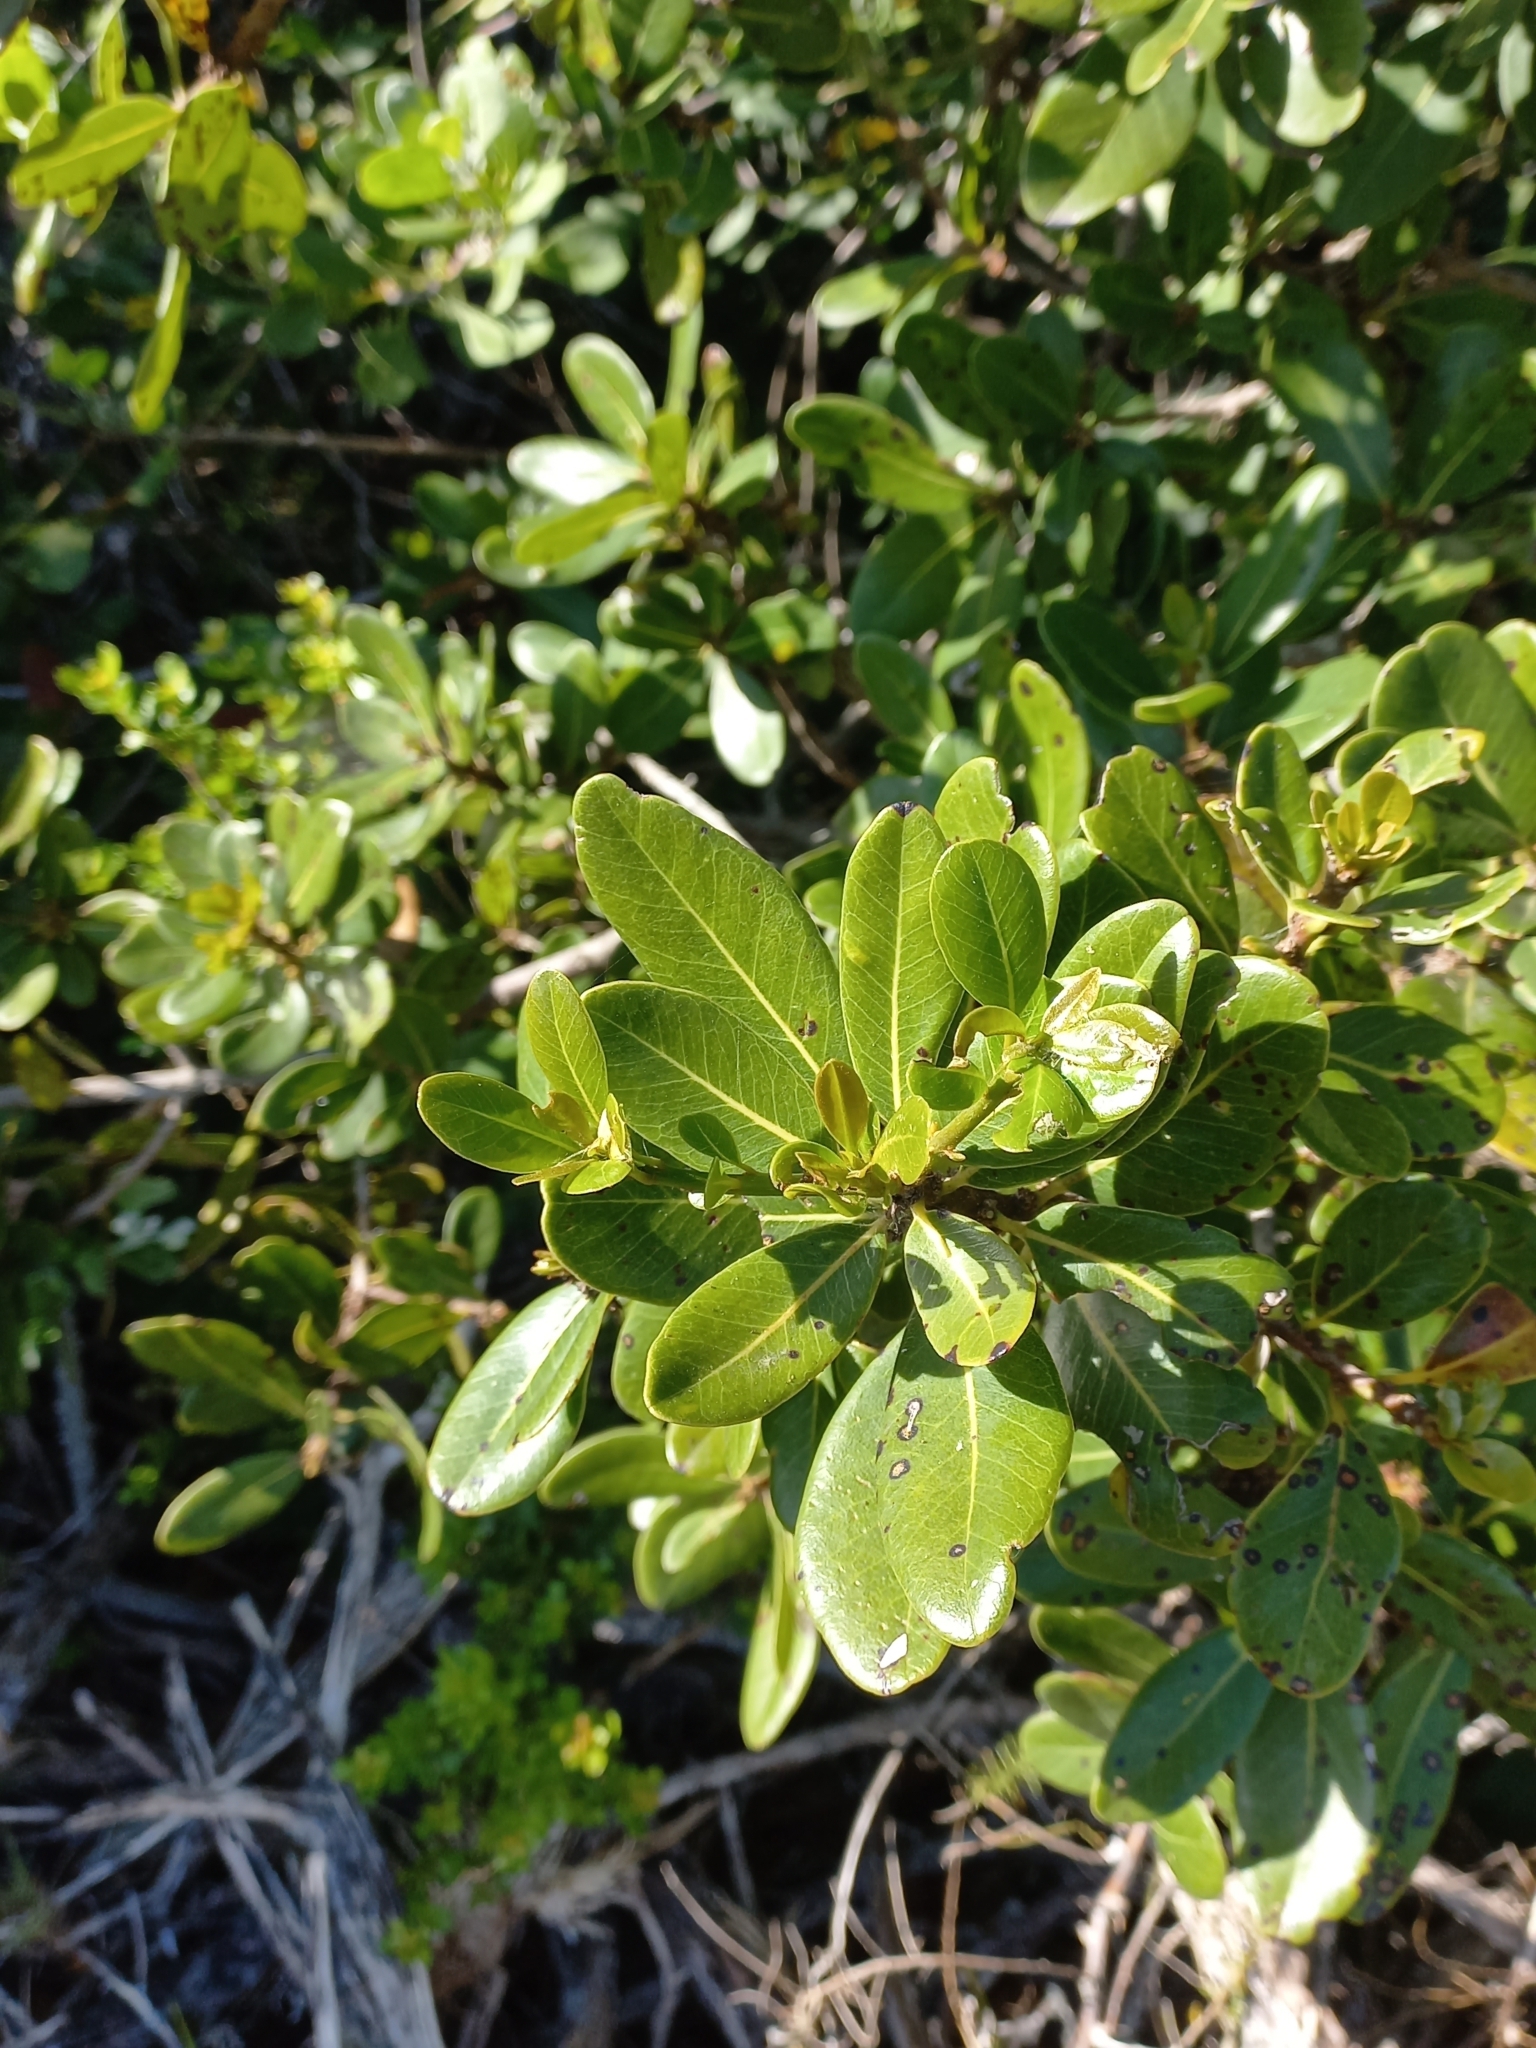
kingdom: Plantae
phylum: Tracheophyta
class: Magnoliopsida
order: Ericales
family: Sapotaceae
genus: Sideroxylon
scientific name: Sideroxylon inerme
